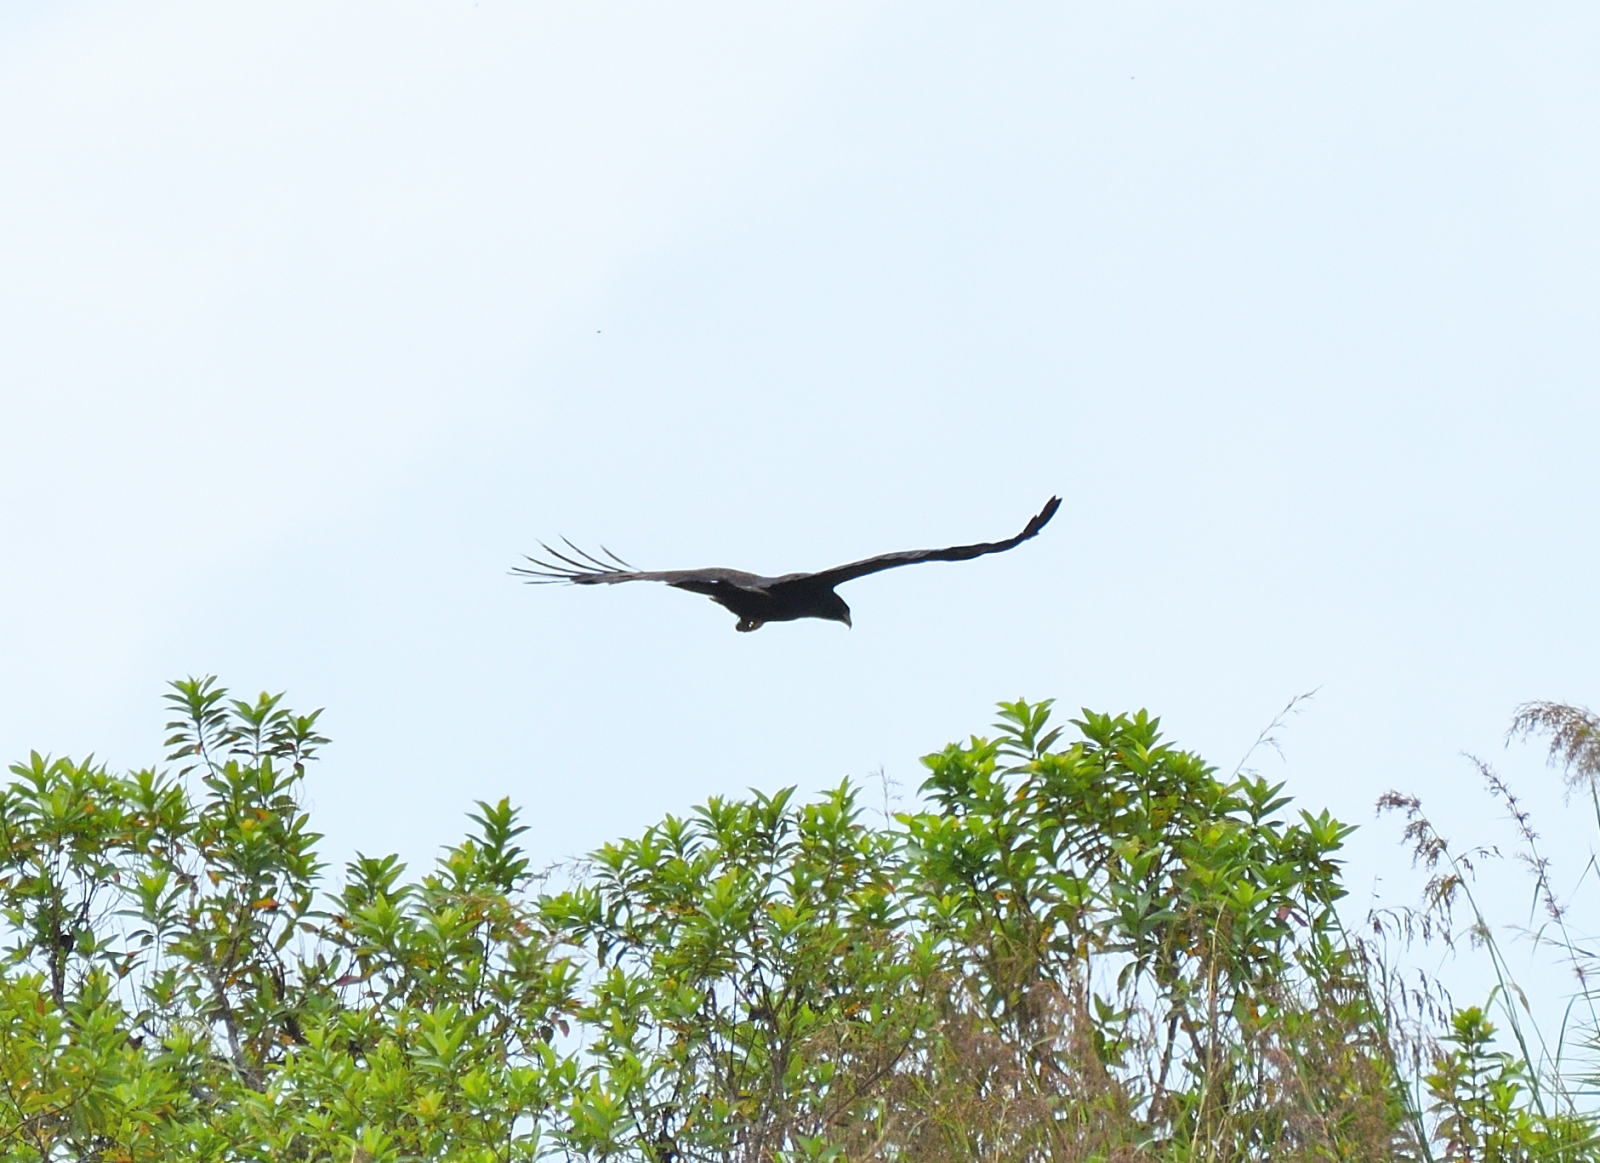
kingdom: Animalia
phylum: Chordata
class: Aves
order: Accipitriformes
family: Accipitridae
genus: Ictinaetus
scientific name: Ictinaetus malayensis
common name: Black eagle
